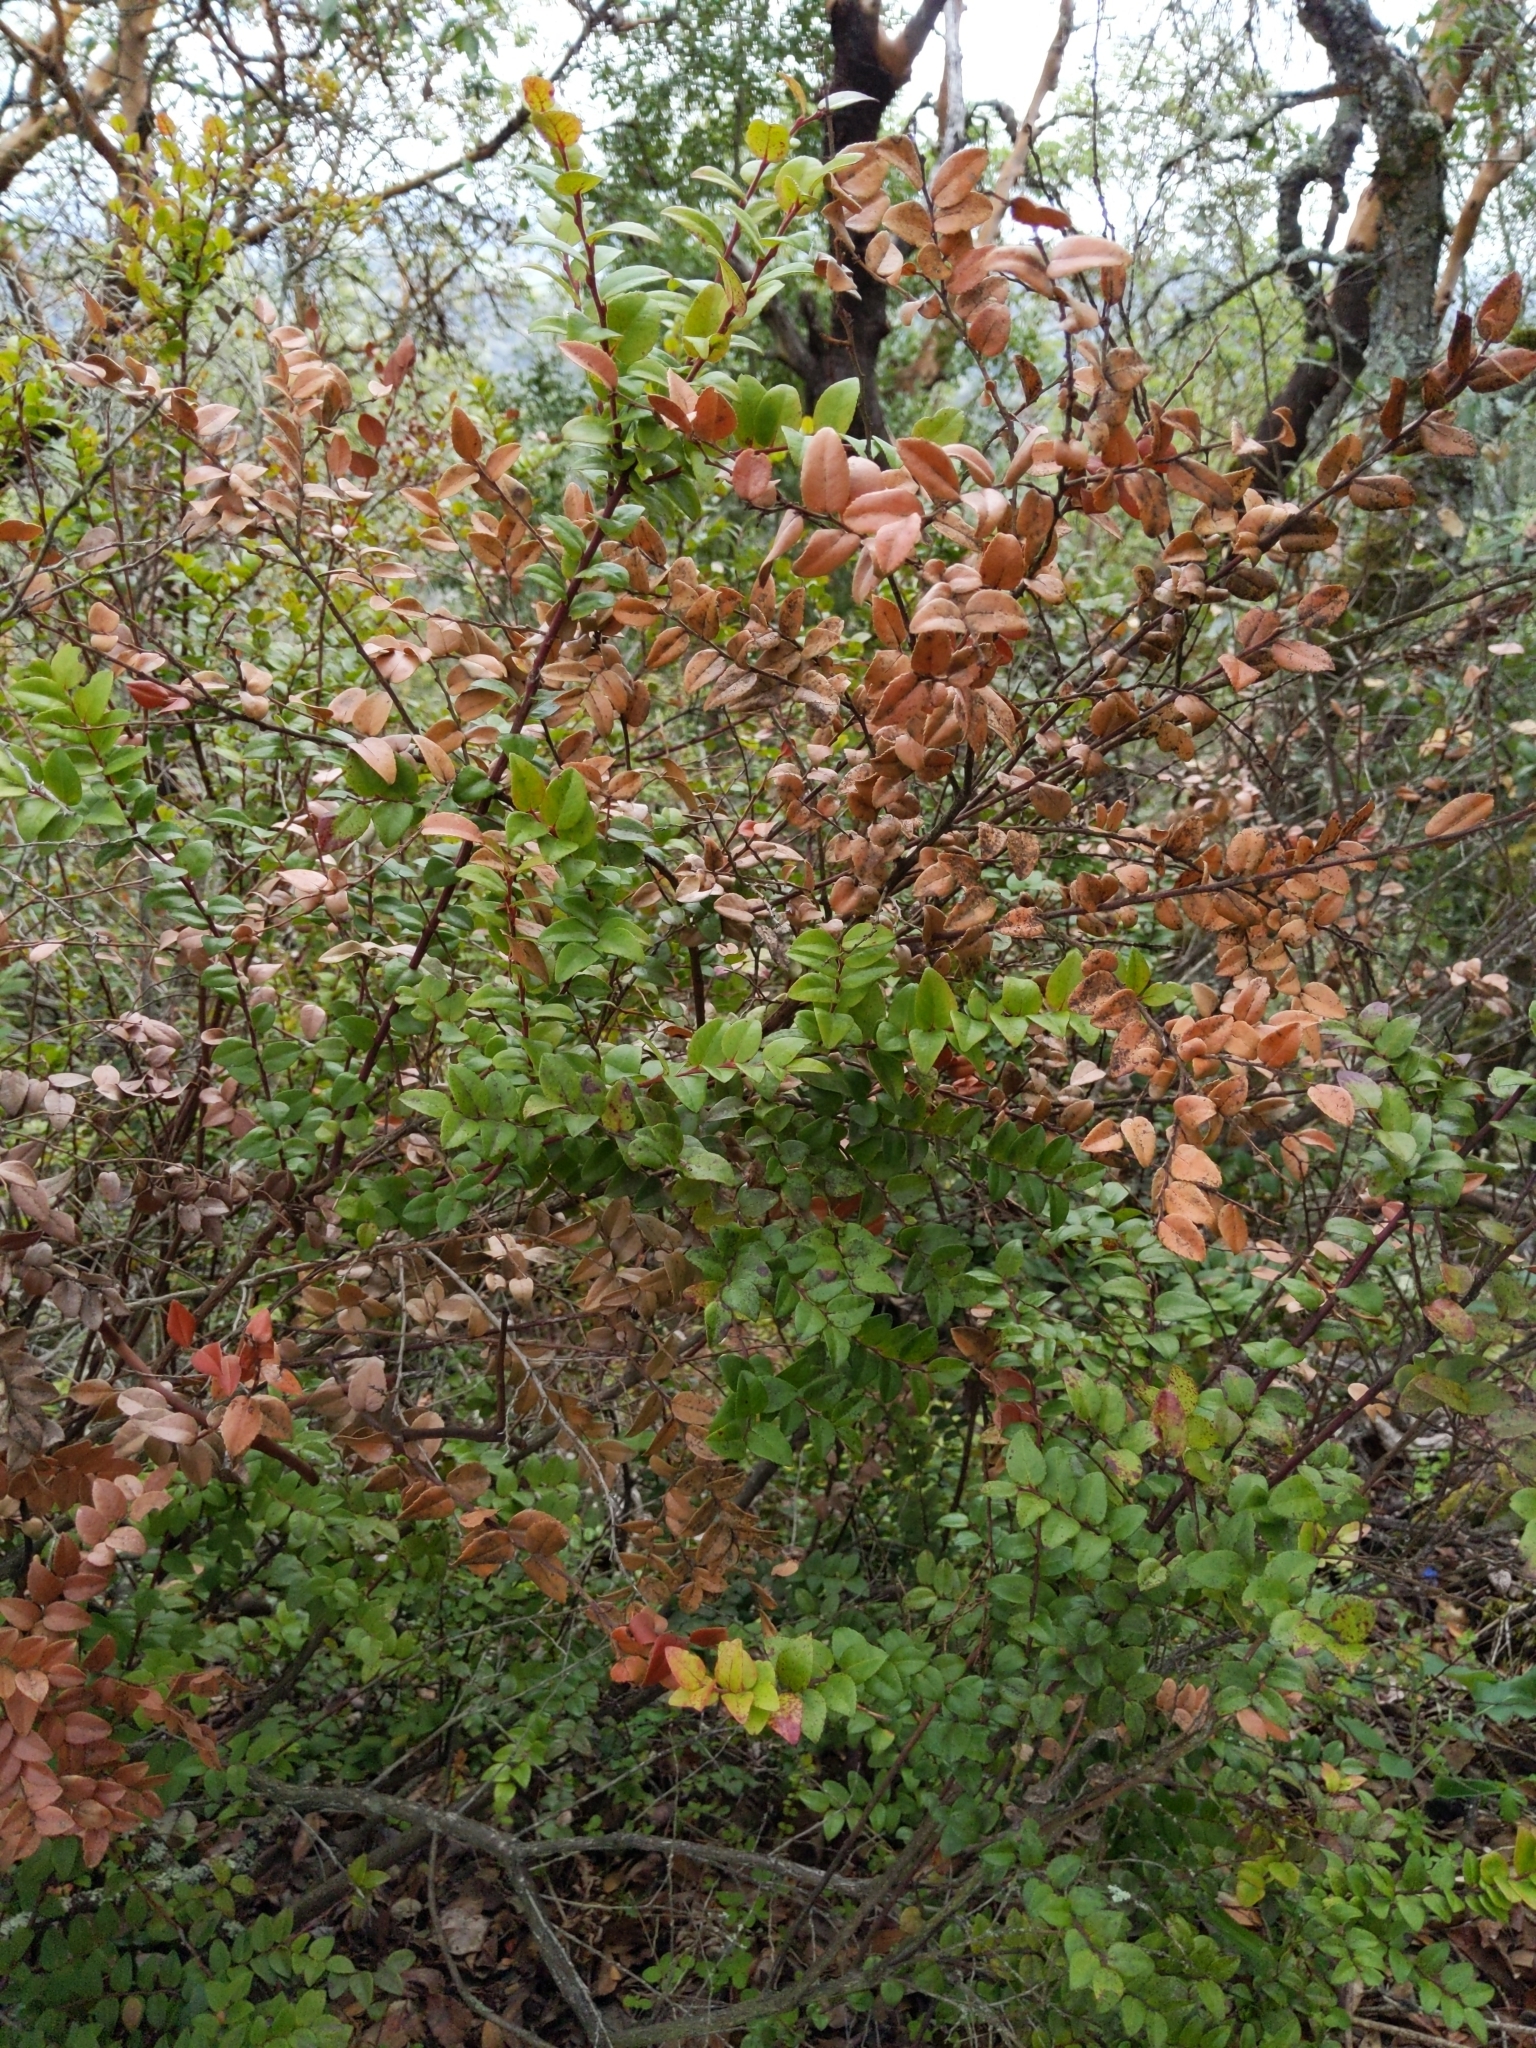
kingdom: Plantae
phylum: Tracheophyta
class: Magnoliopsida
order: Ericales
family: Ericaceae
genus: Vaccinium
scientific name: Vaccinium ovatum
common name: California-huckleberry
